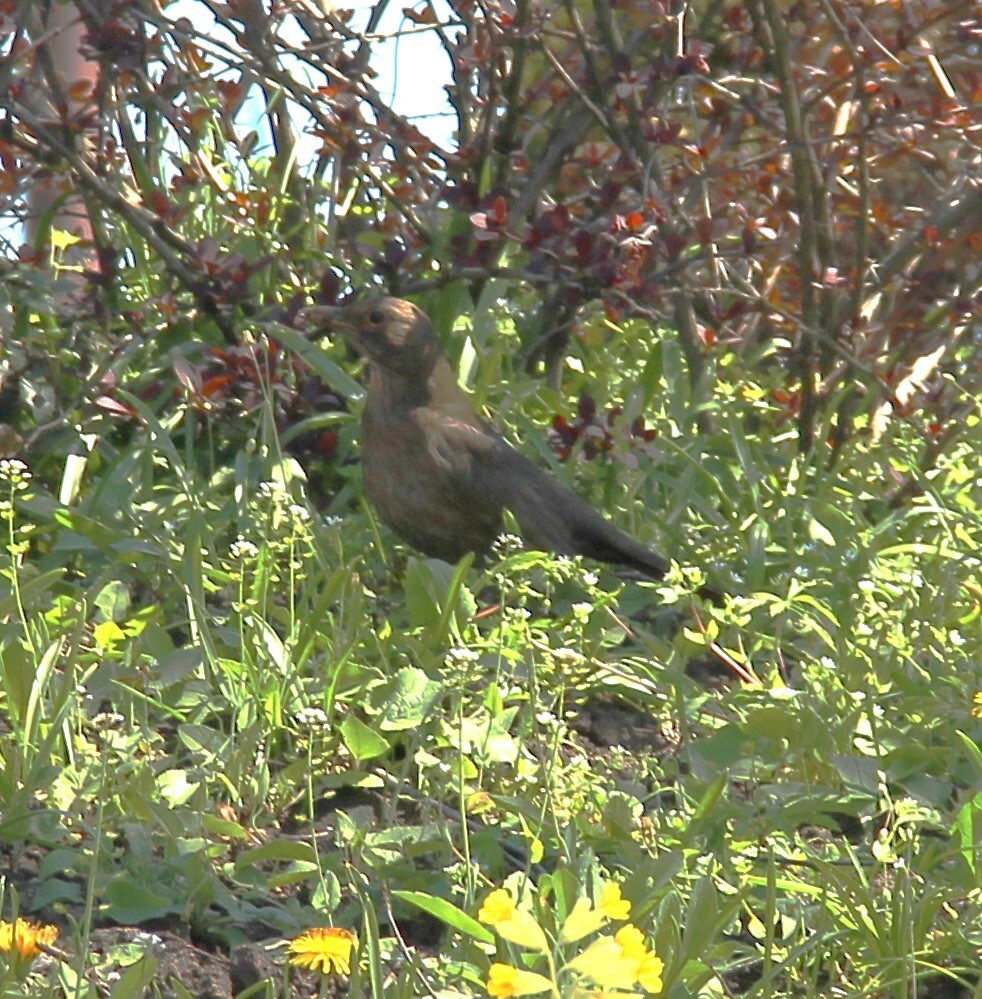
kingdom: Animalia
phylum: Chordata
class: Aves
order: Passeriformes
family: Turdidae
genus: Turdus
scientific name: Turdus merula
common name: Common blackbird
